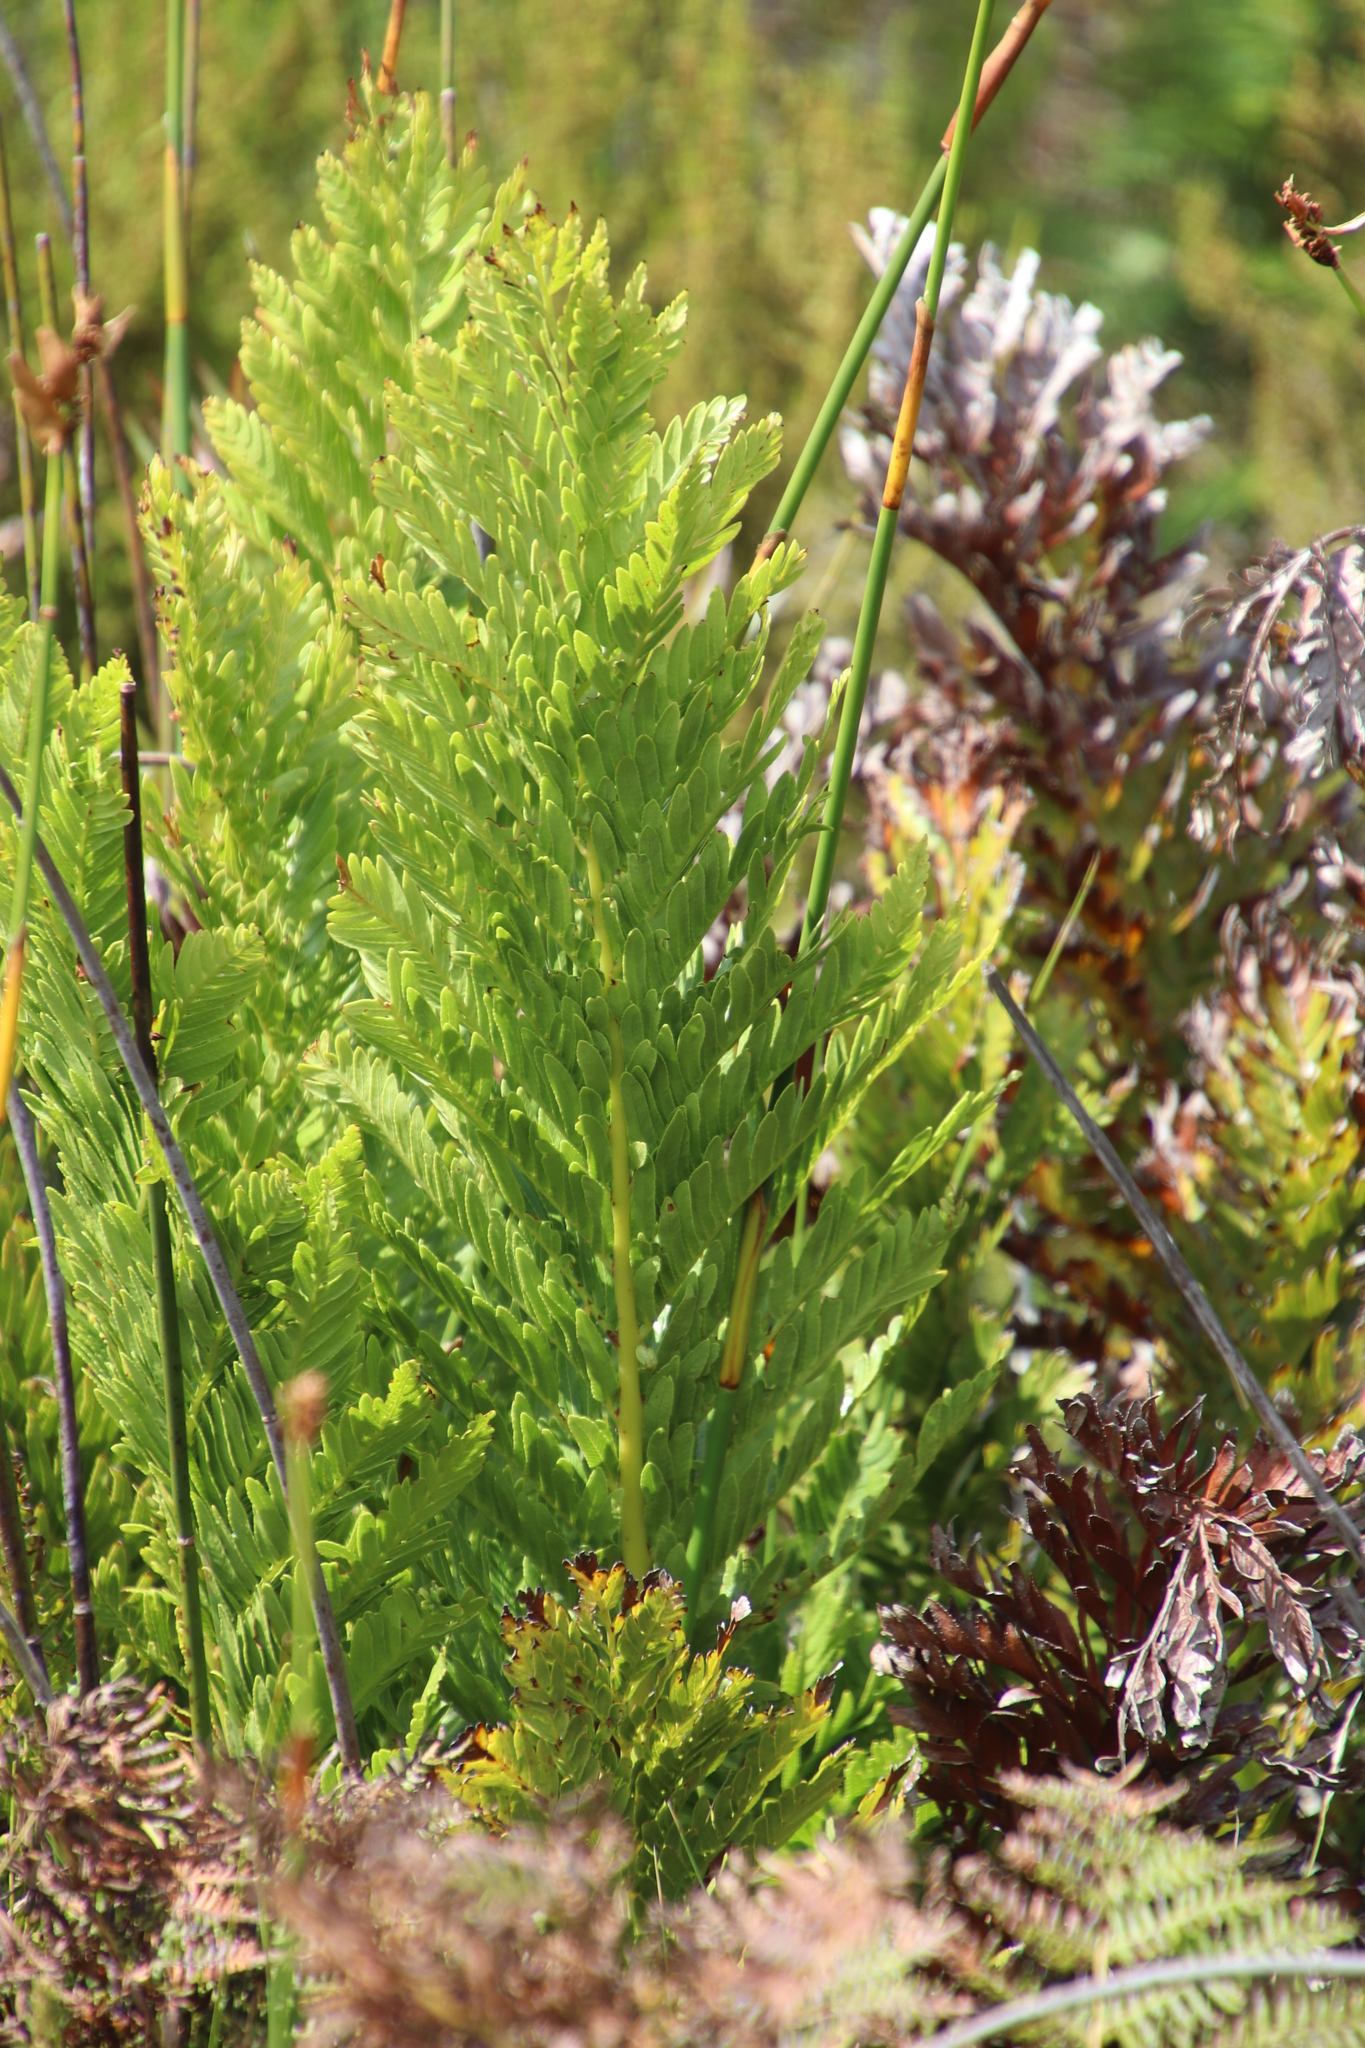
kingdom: Plantae
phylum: Tracheophyta
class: Polypodiopsida
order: Osmundales
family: Osmundaceae
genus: Todea
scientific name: Todea barbara
